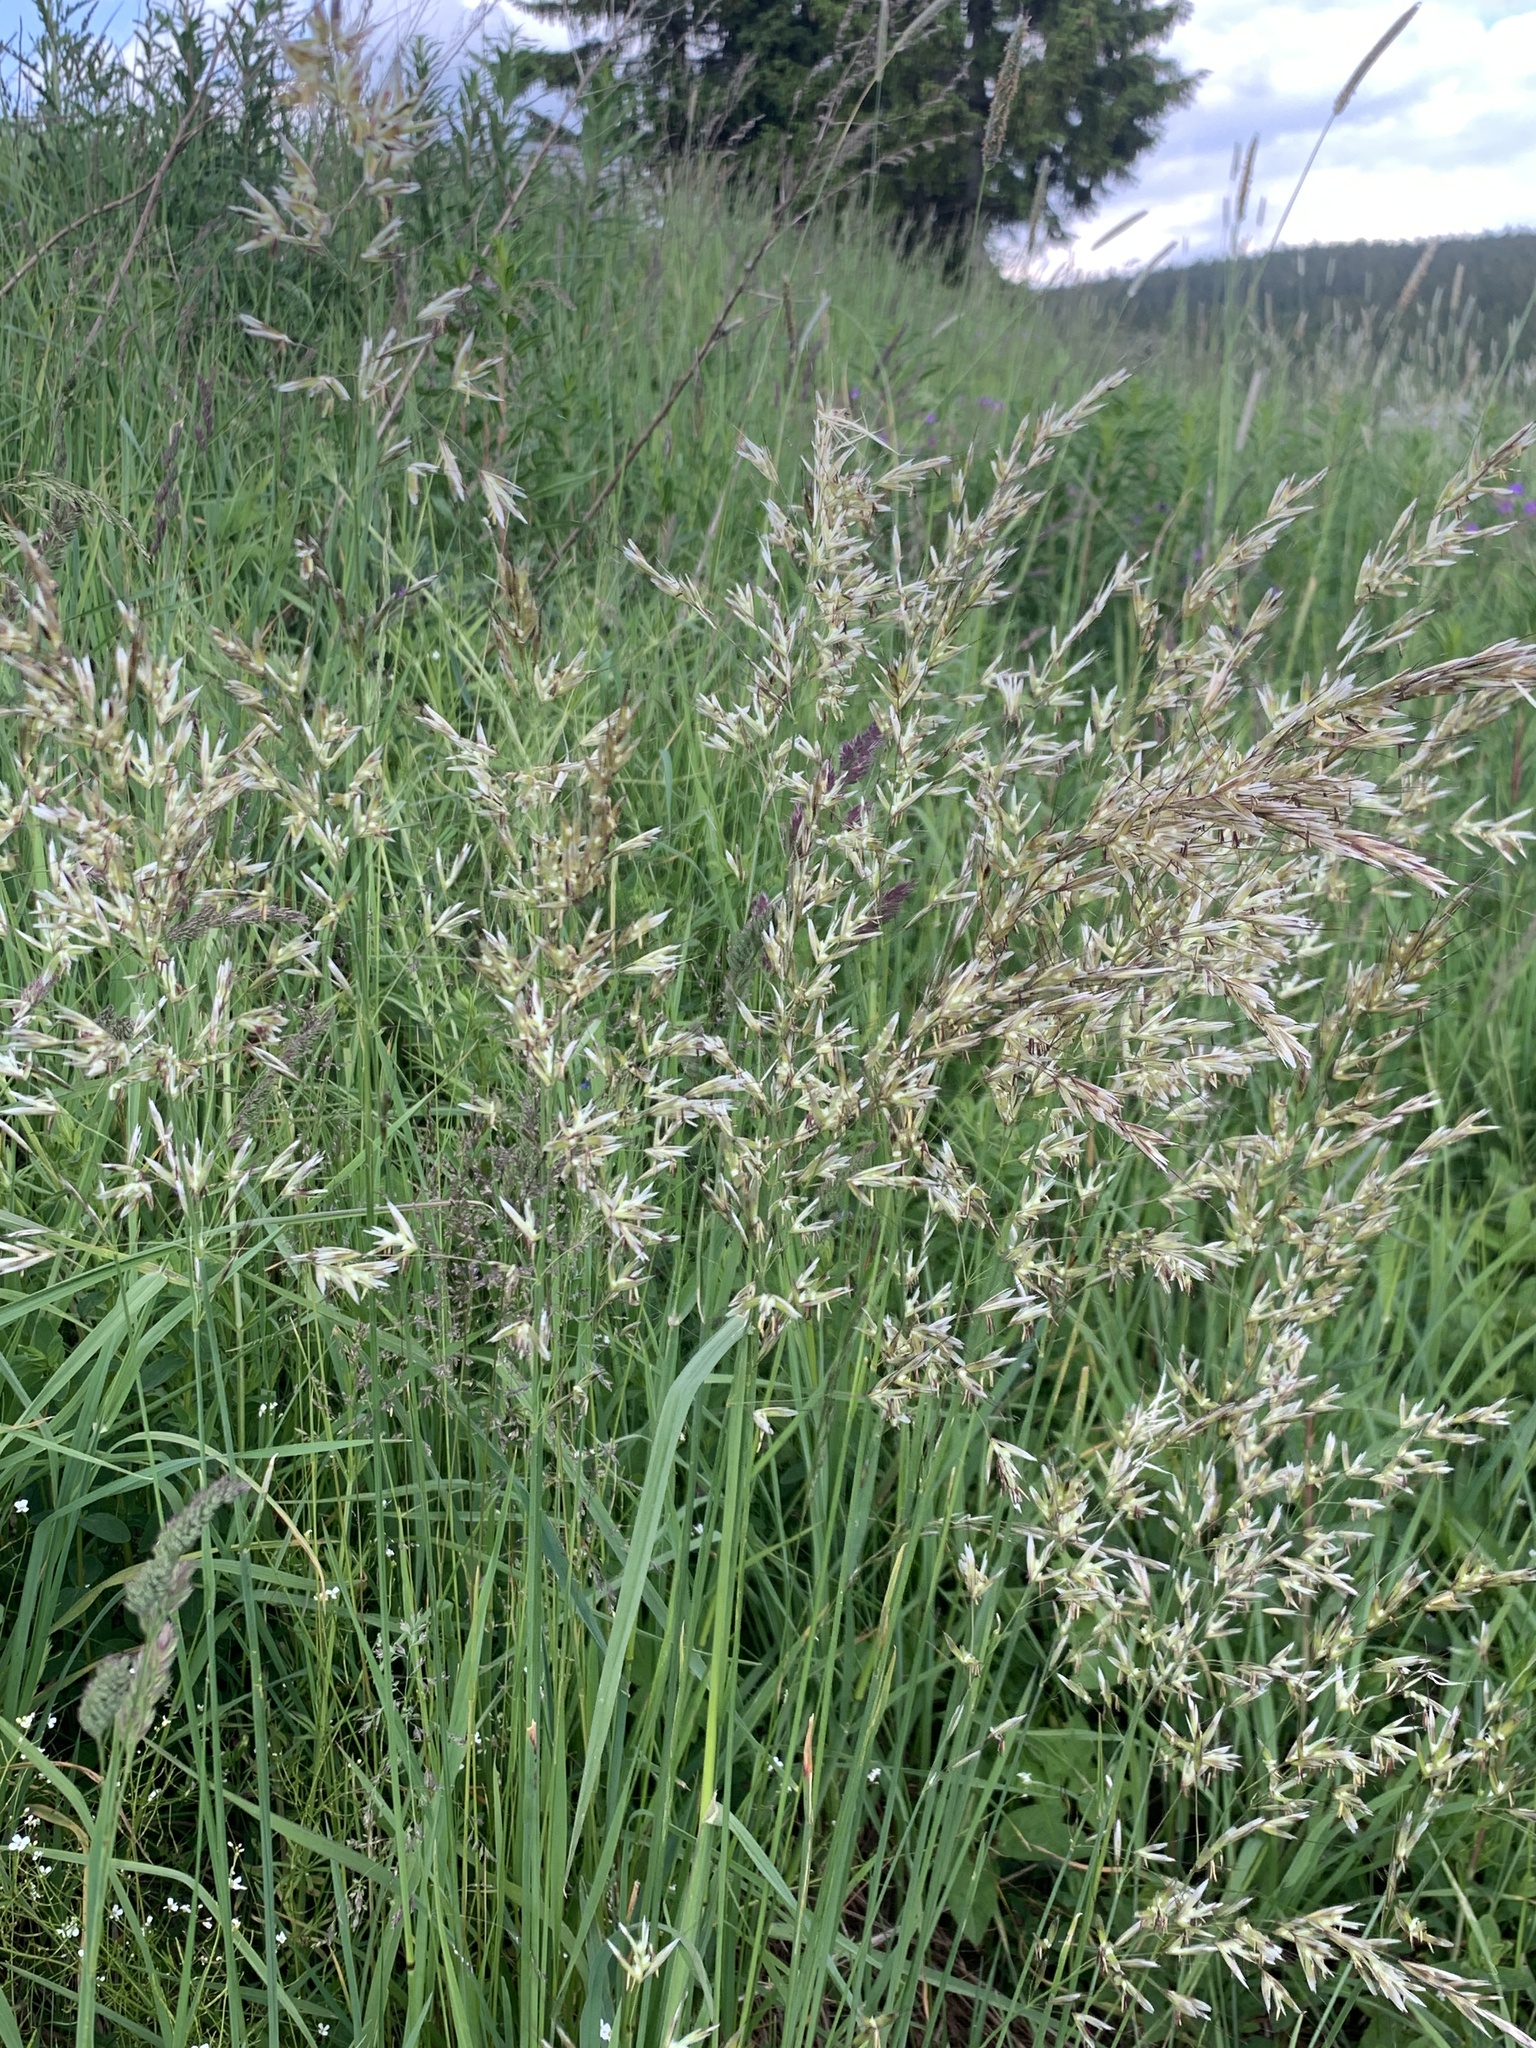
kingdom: Plantae
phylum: Tracheophyta
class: Liliopsida
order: Poales
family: Poaceae
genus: Avenula
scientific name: Avenula pubescens
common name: Downy alpine oatgrass
